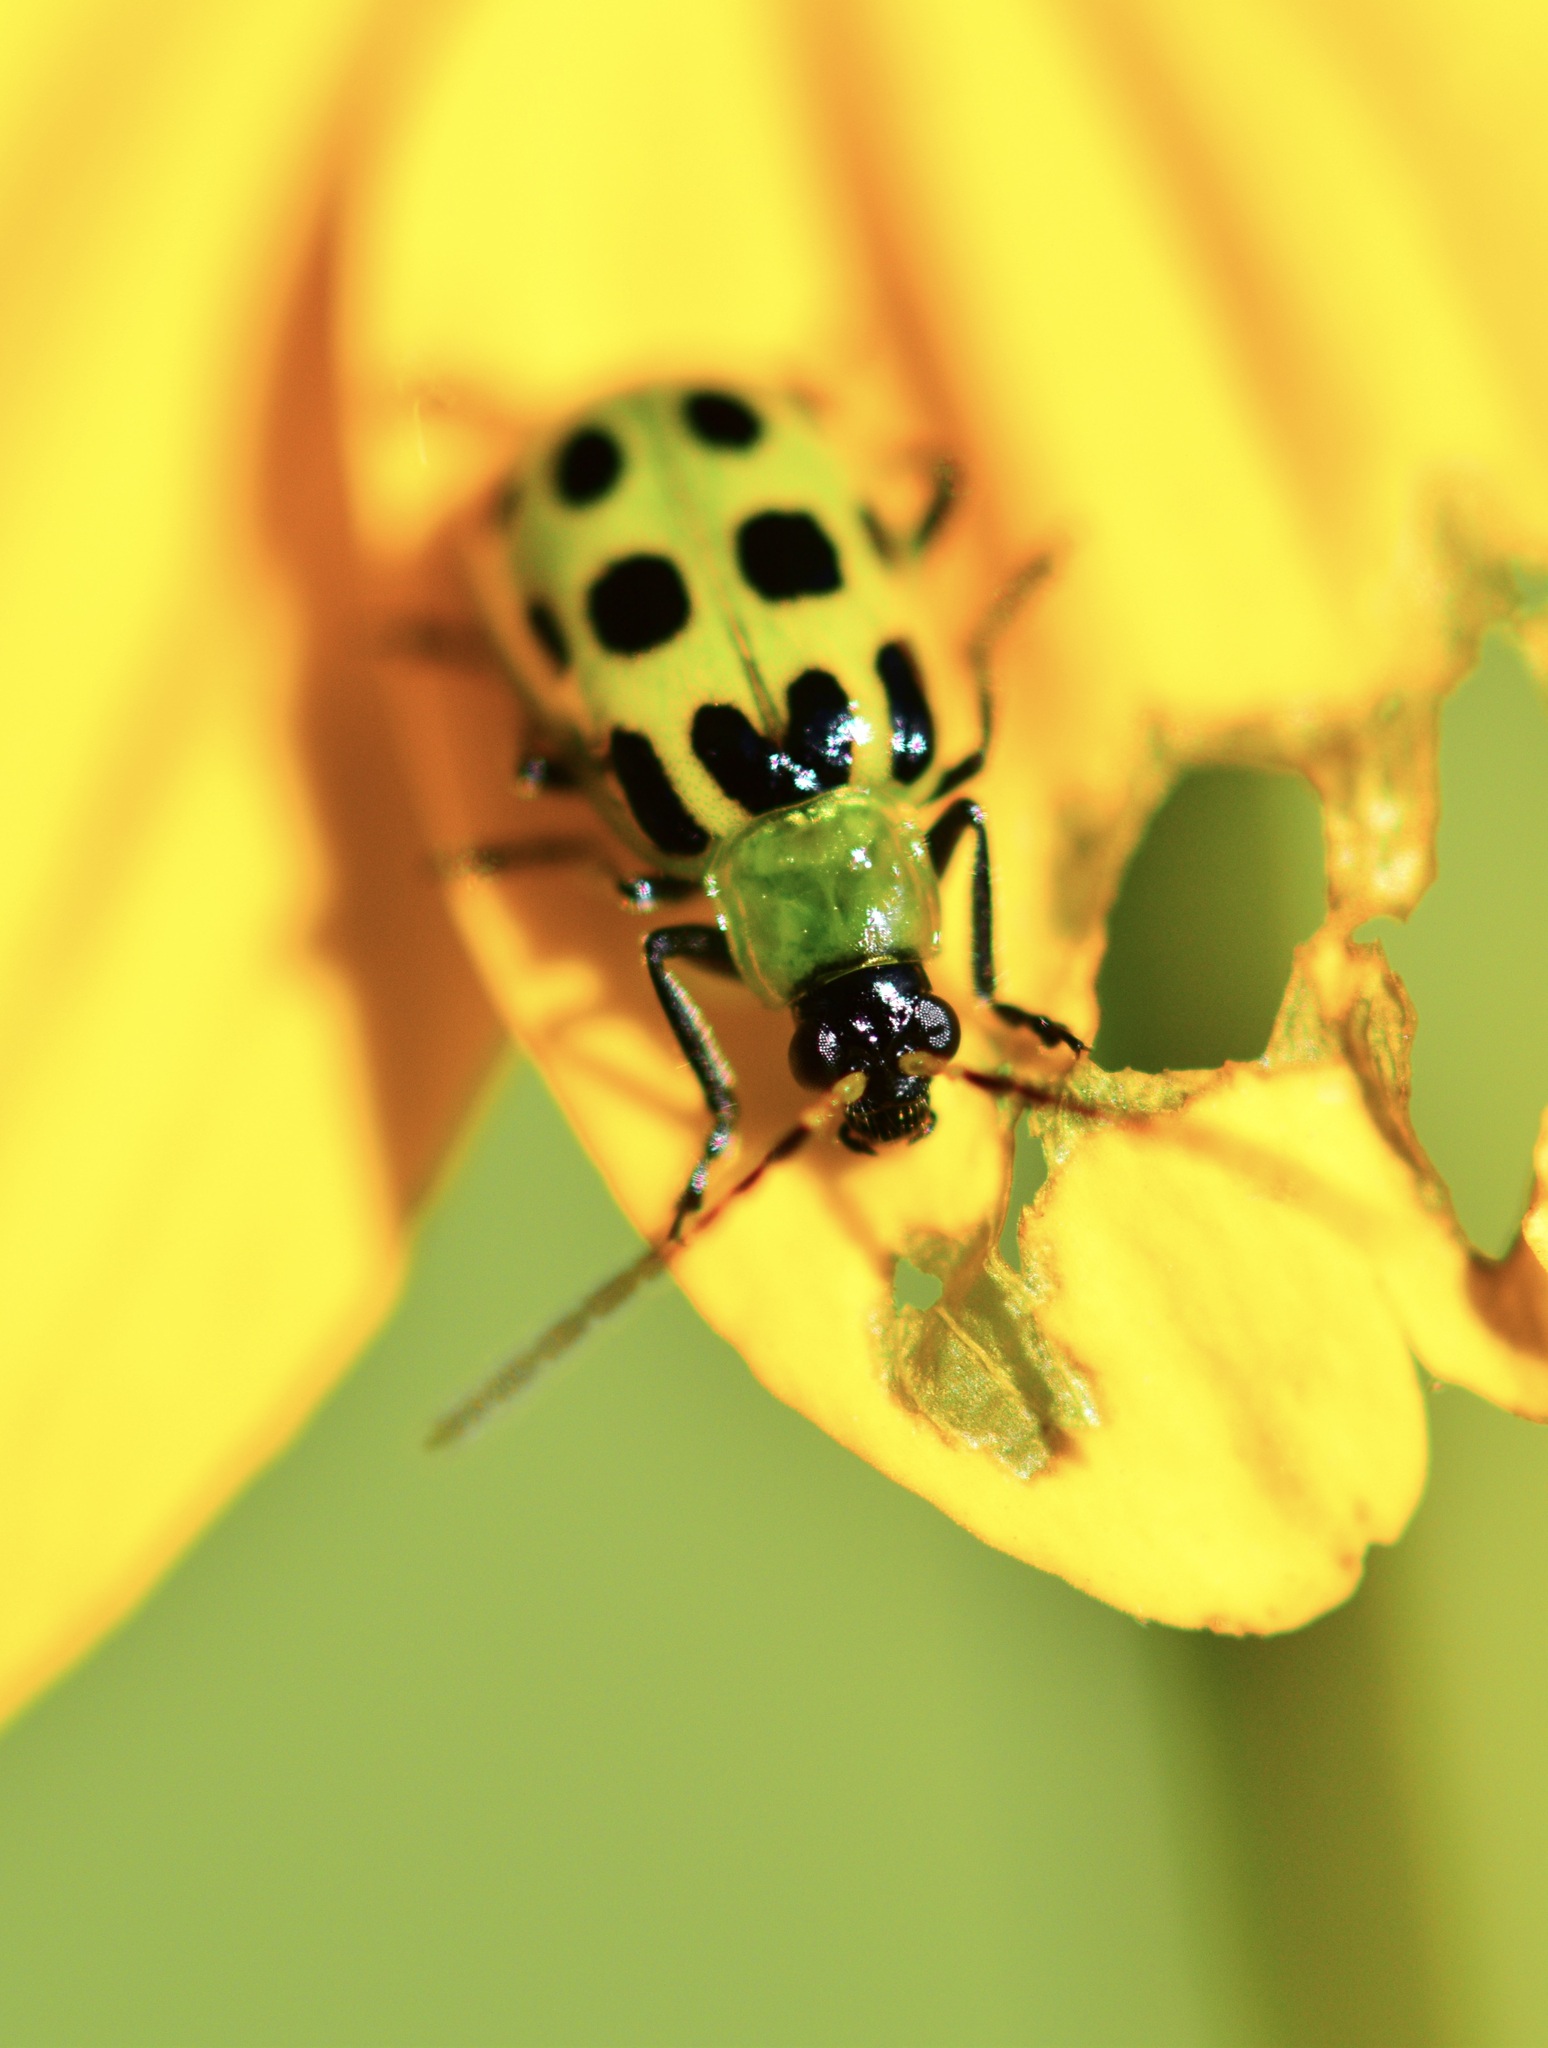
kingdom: Animalia
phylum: Arthropoda
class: Insecta
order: Coleoptera
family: Chrysomelidae
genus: Diabrotica
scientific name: Diabrotica undecimpunctata
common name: Spotted cucumber beetle
